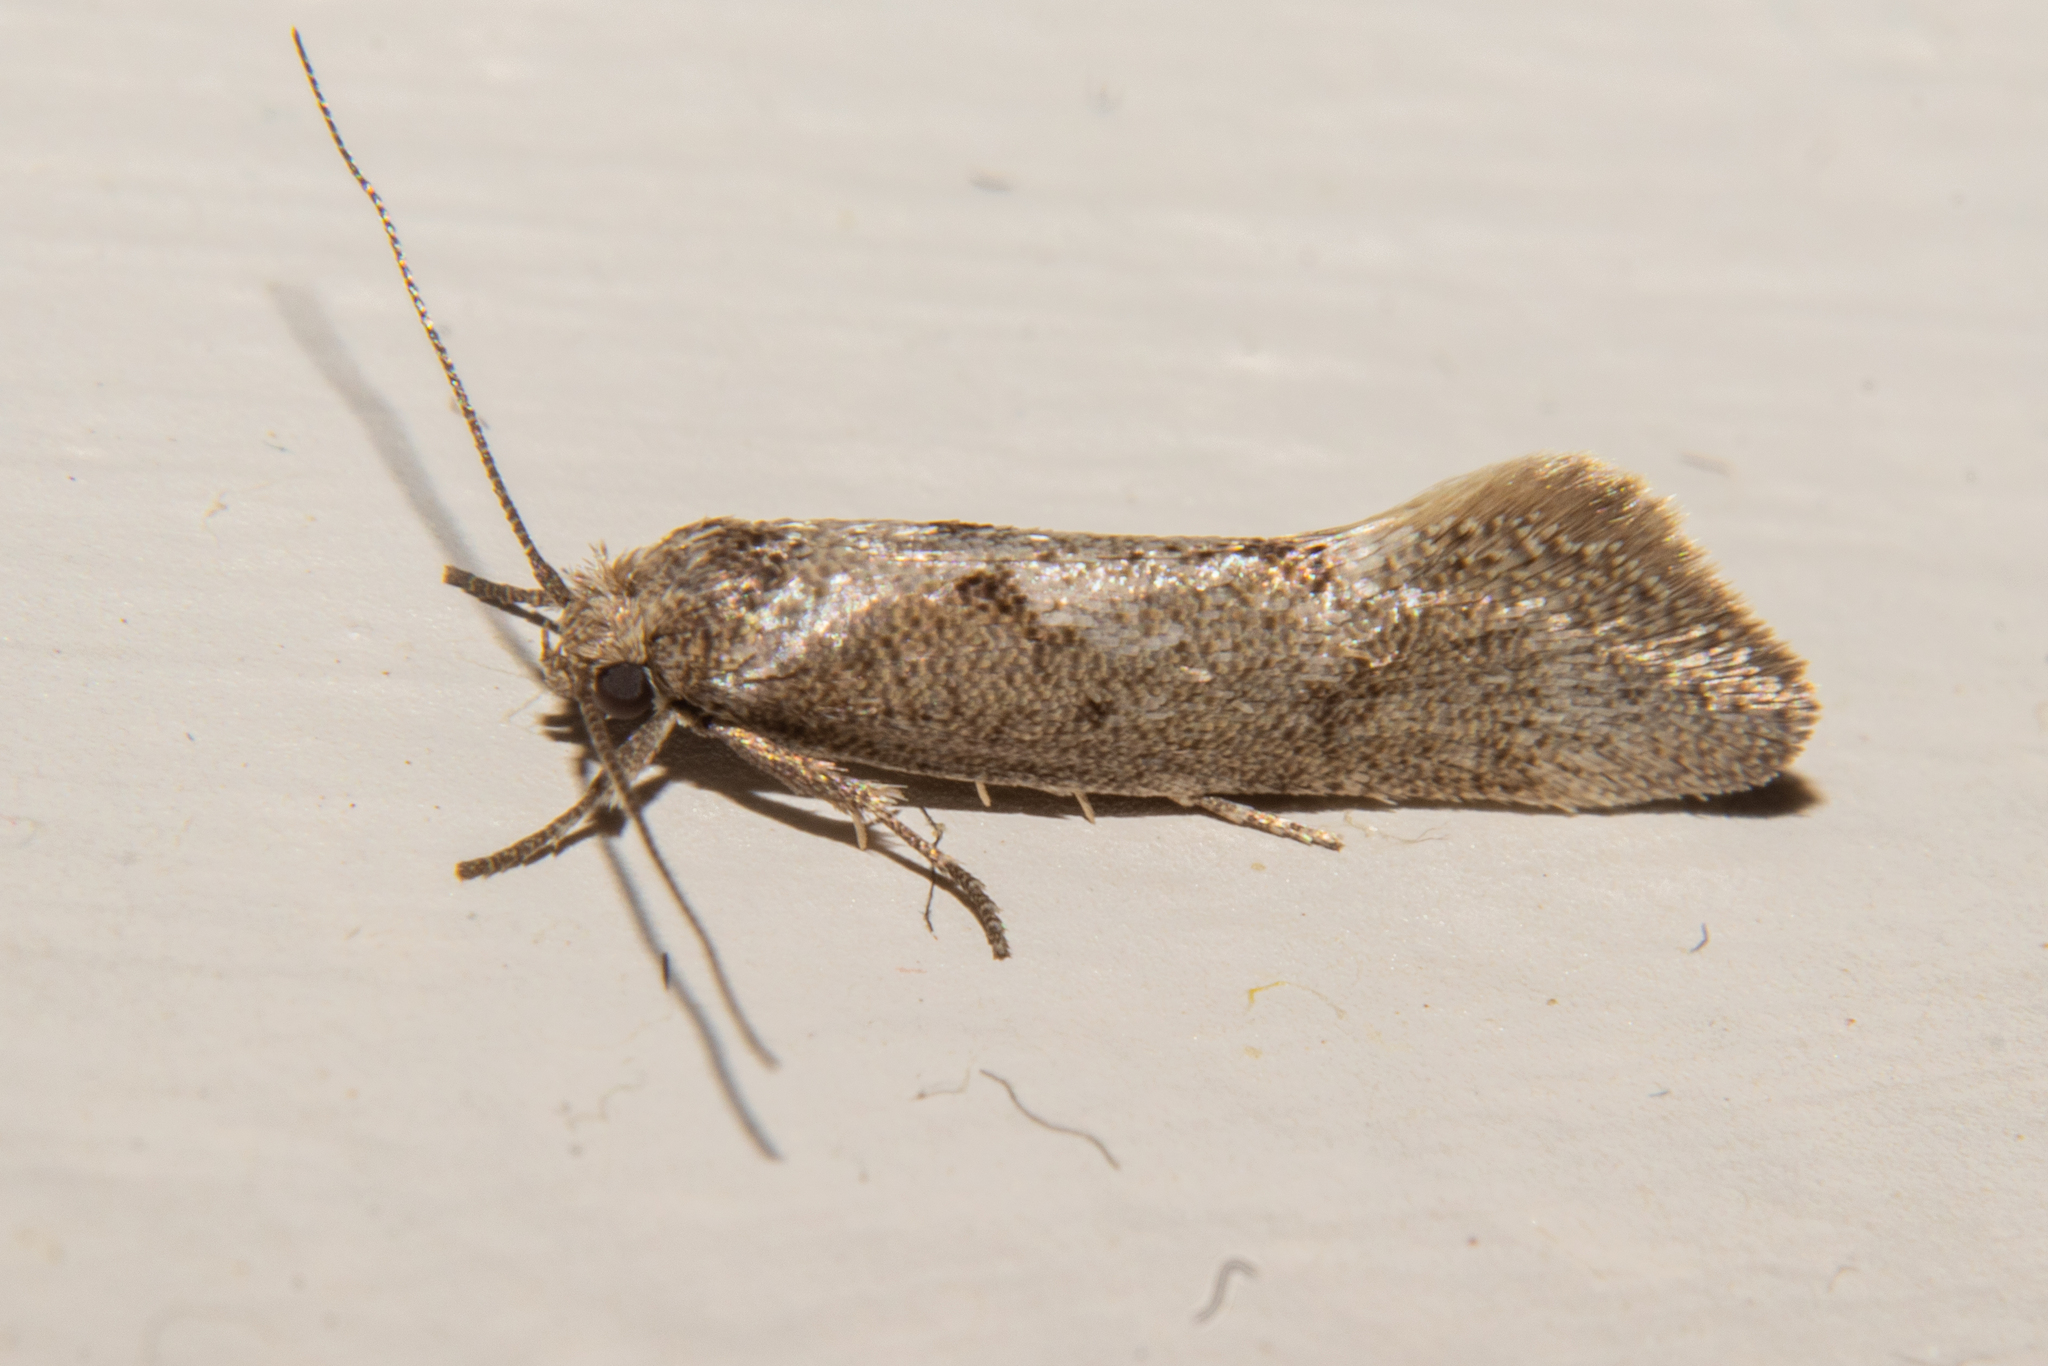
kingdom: Animalia
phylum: Arthropoda
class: Insecta
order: Lepidoptera
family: Oecophoridae
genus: Tingena
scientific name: Tingena brachyacma
